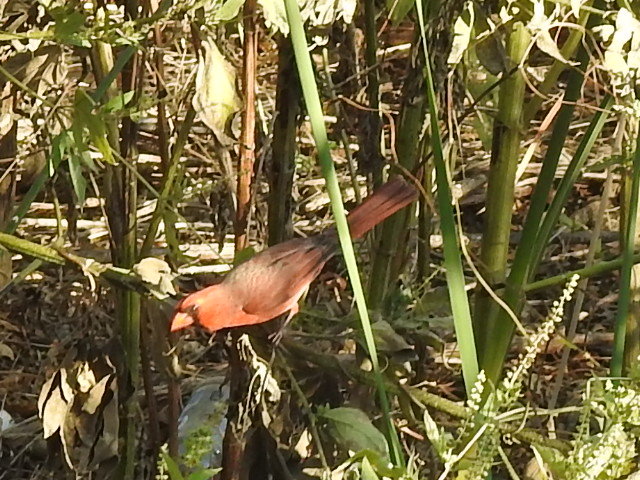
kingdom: Animalia
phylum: Chordata
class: Aves
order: Passeriformes
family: Cardinalidae
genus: Cardinalis
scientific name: Cardinalis cardinalis
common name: Northern cardinal
